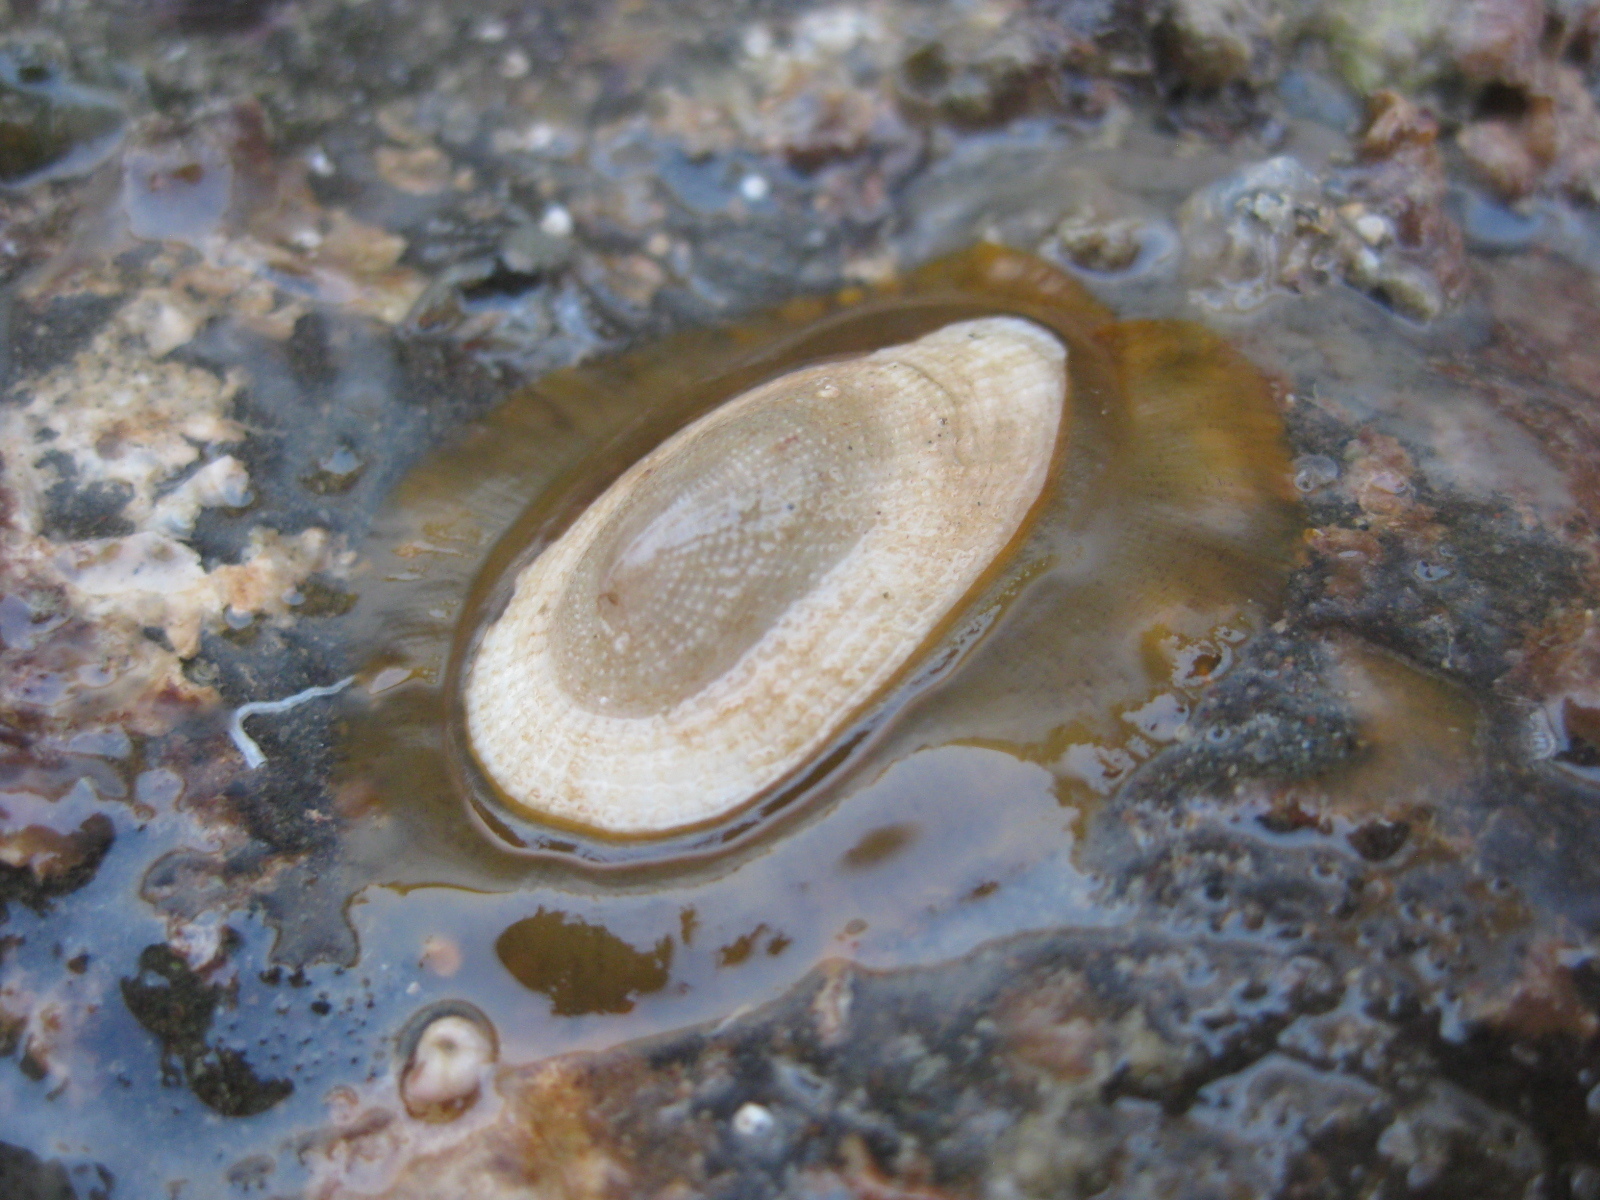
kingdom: Animalia
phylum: Mollusca
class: Gastropoda
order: Lepetellida
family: Fissurellidae
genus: Tugali
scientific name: Tugali elegans
